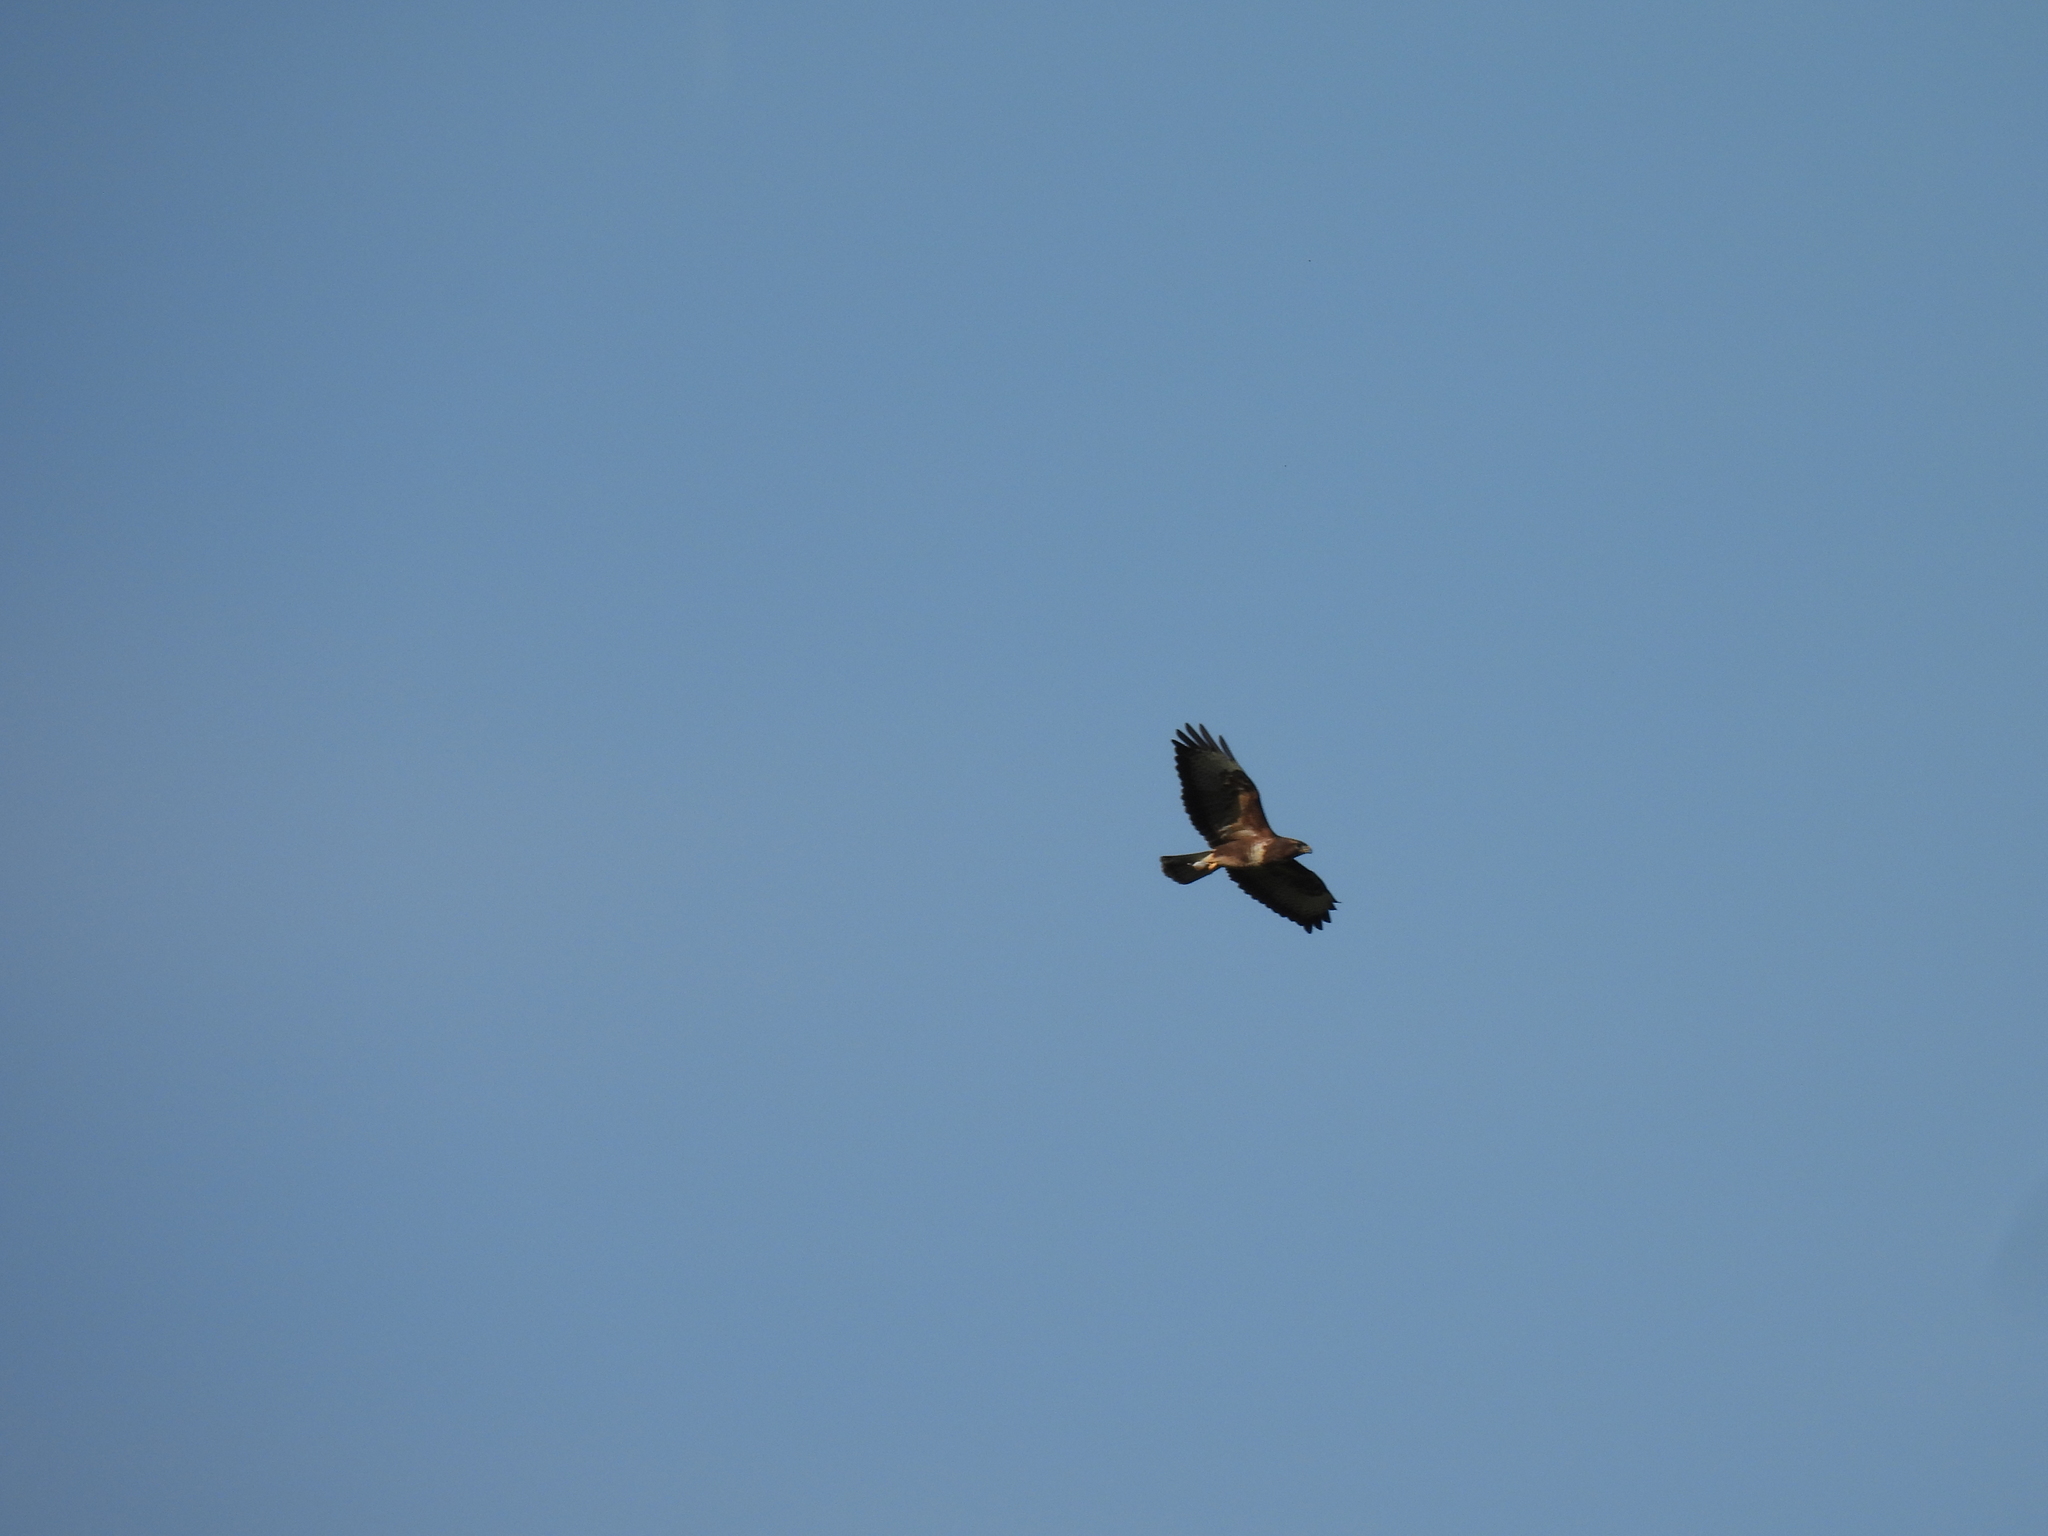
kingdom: Animalia
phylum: Chordata
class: Aves
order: Accipitriformes
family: Accipitridae
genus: Buteo
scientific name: Buteo buteo
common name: Common buzzard
